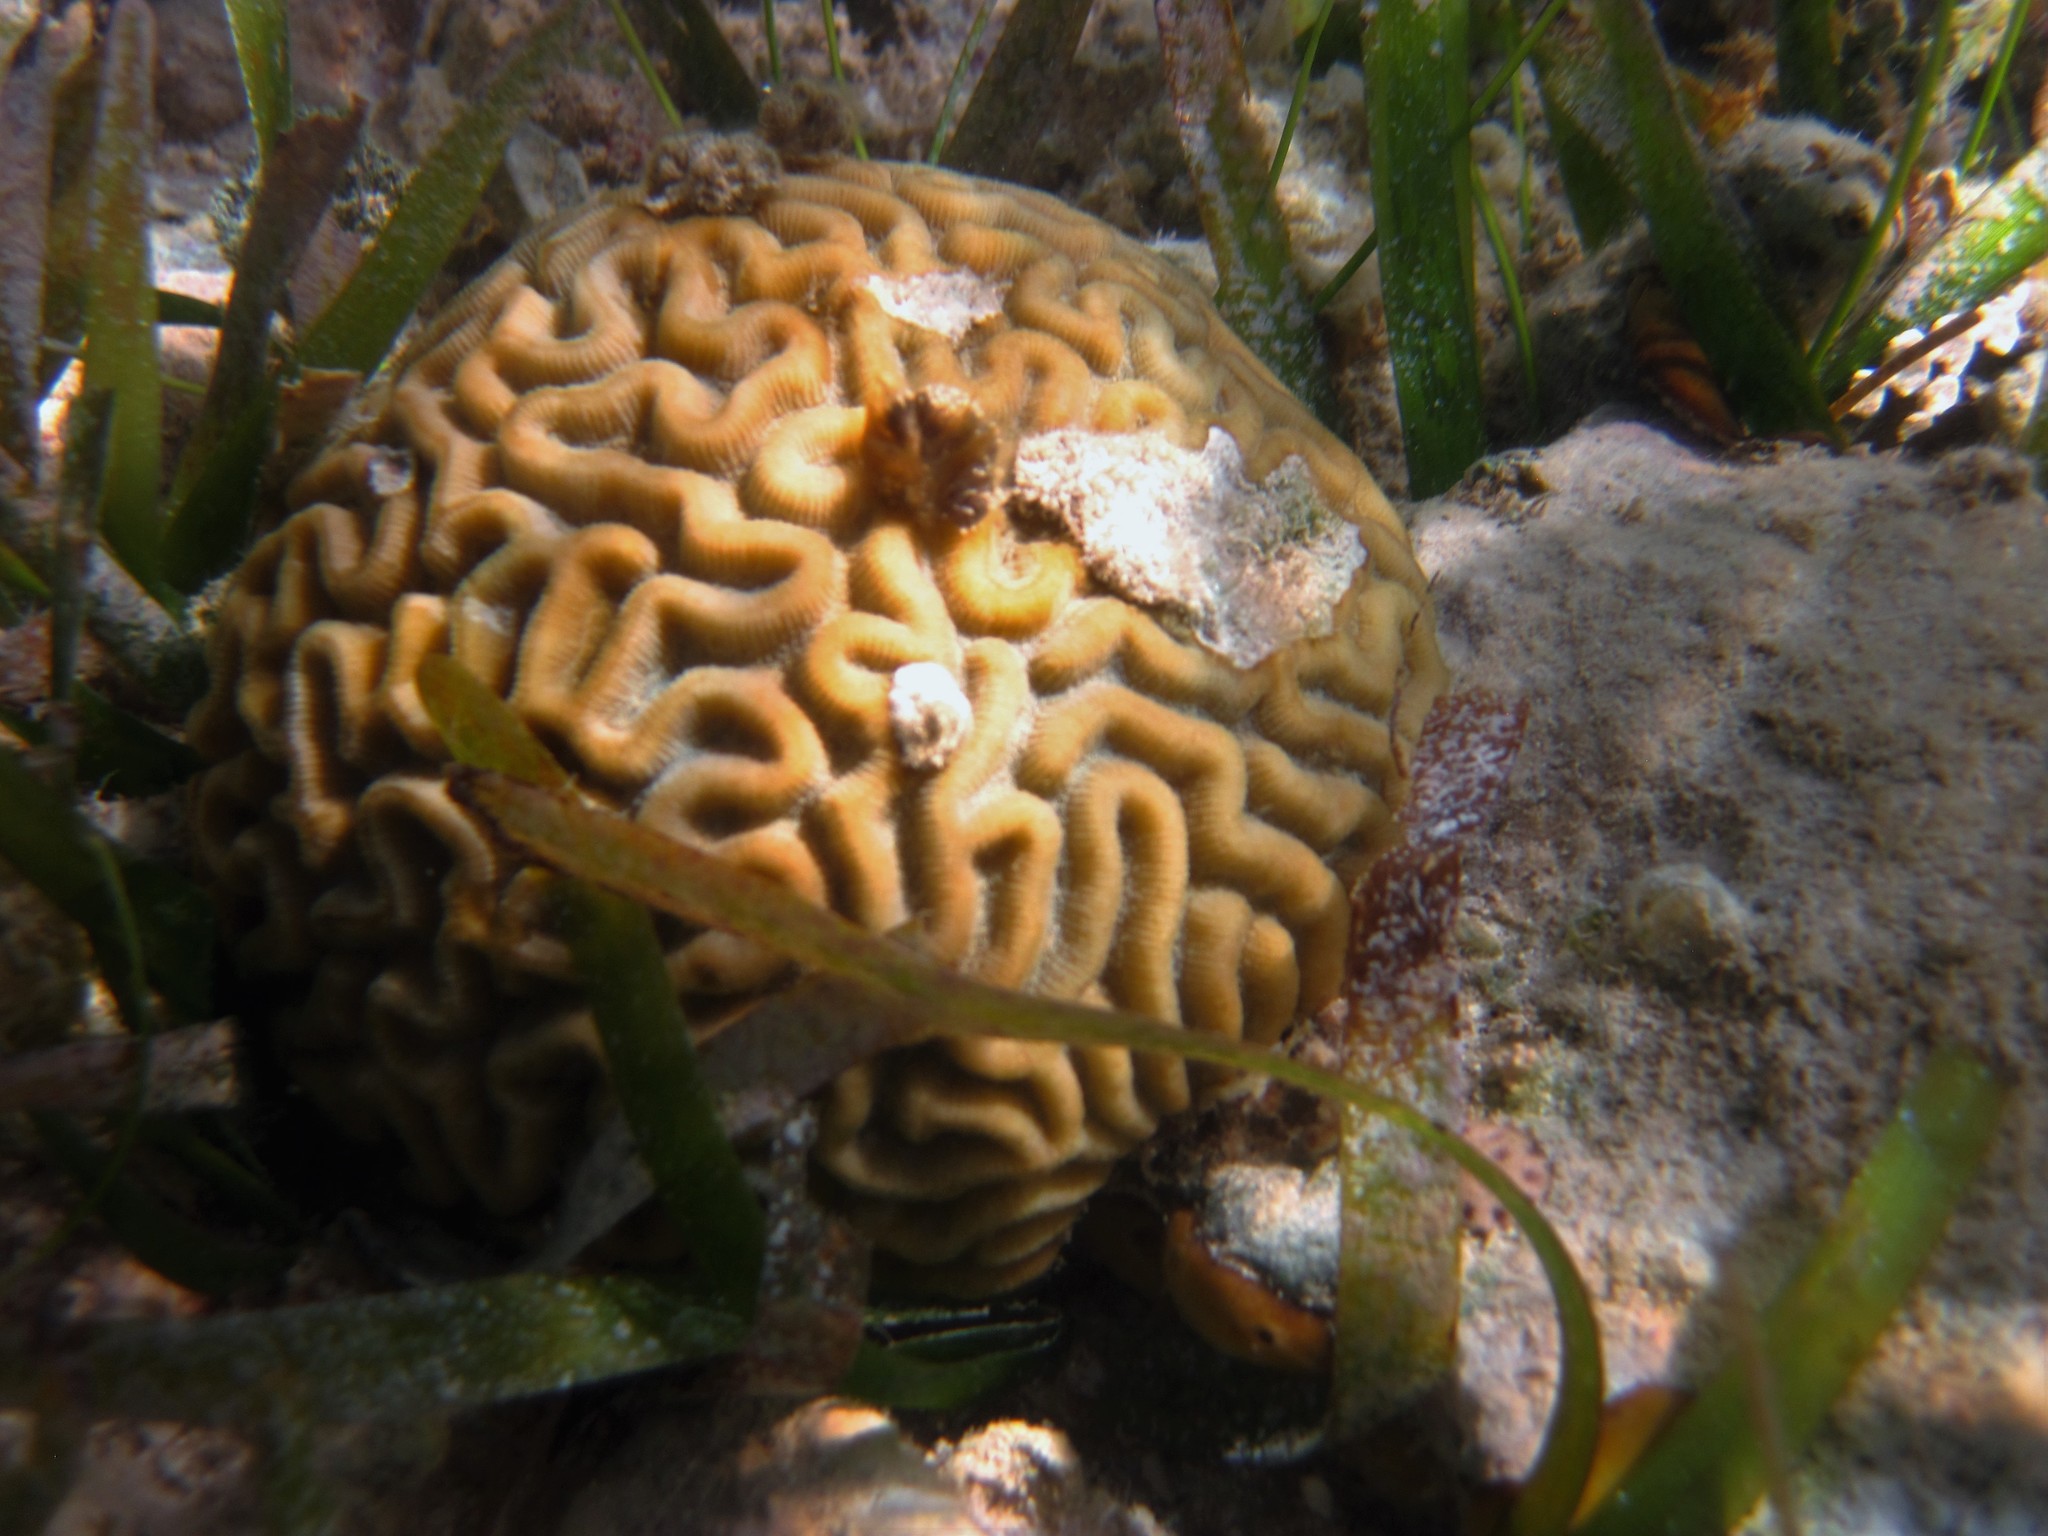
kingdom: Animalia
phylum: Cnidaria
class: Anthozoa
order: Scleractinia
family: Faviidae
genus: Pseudodiploria
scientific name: Pseudodiploria strigosa
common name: Symmetrical brain coral
